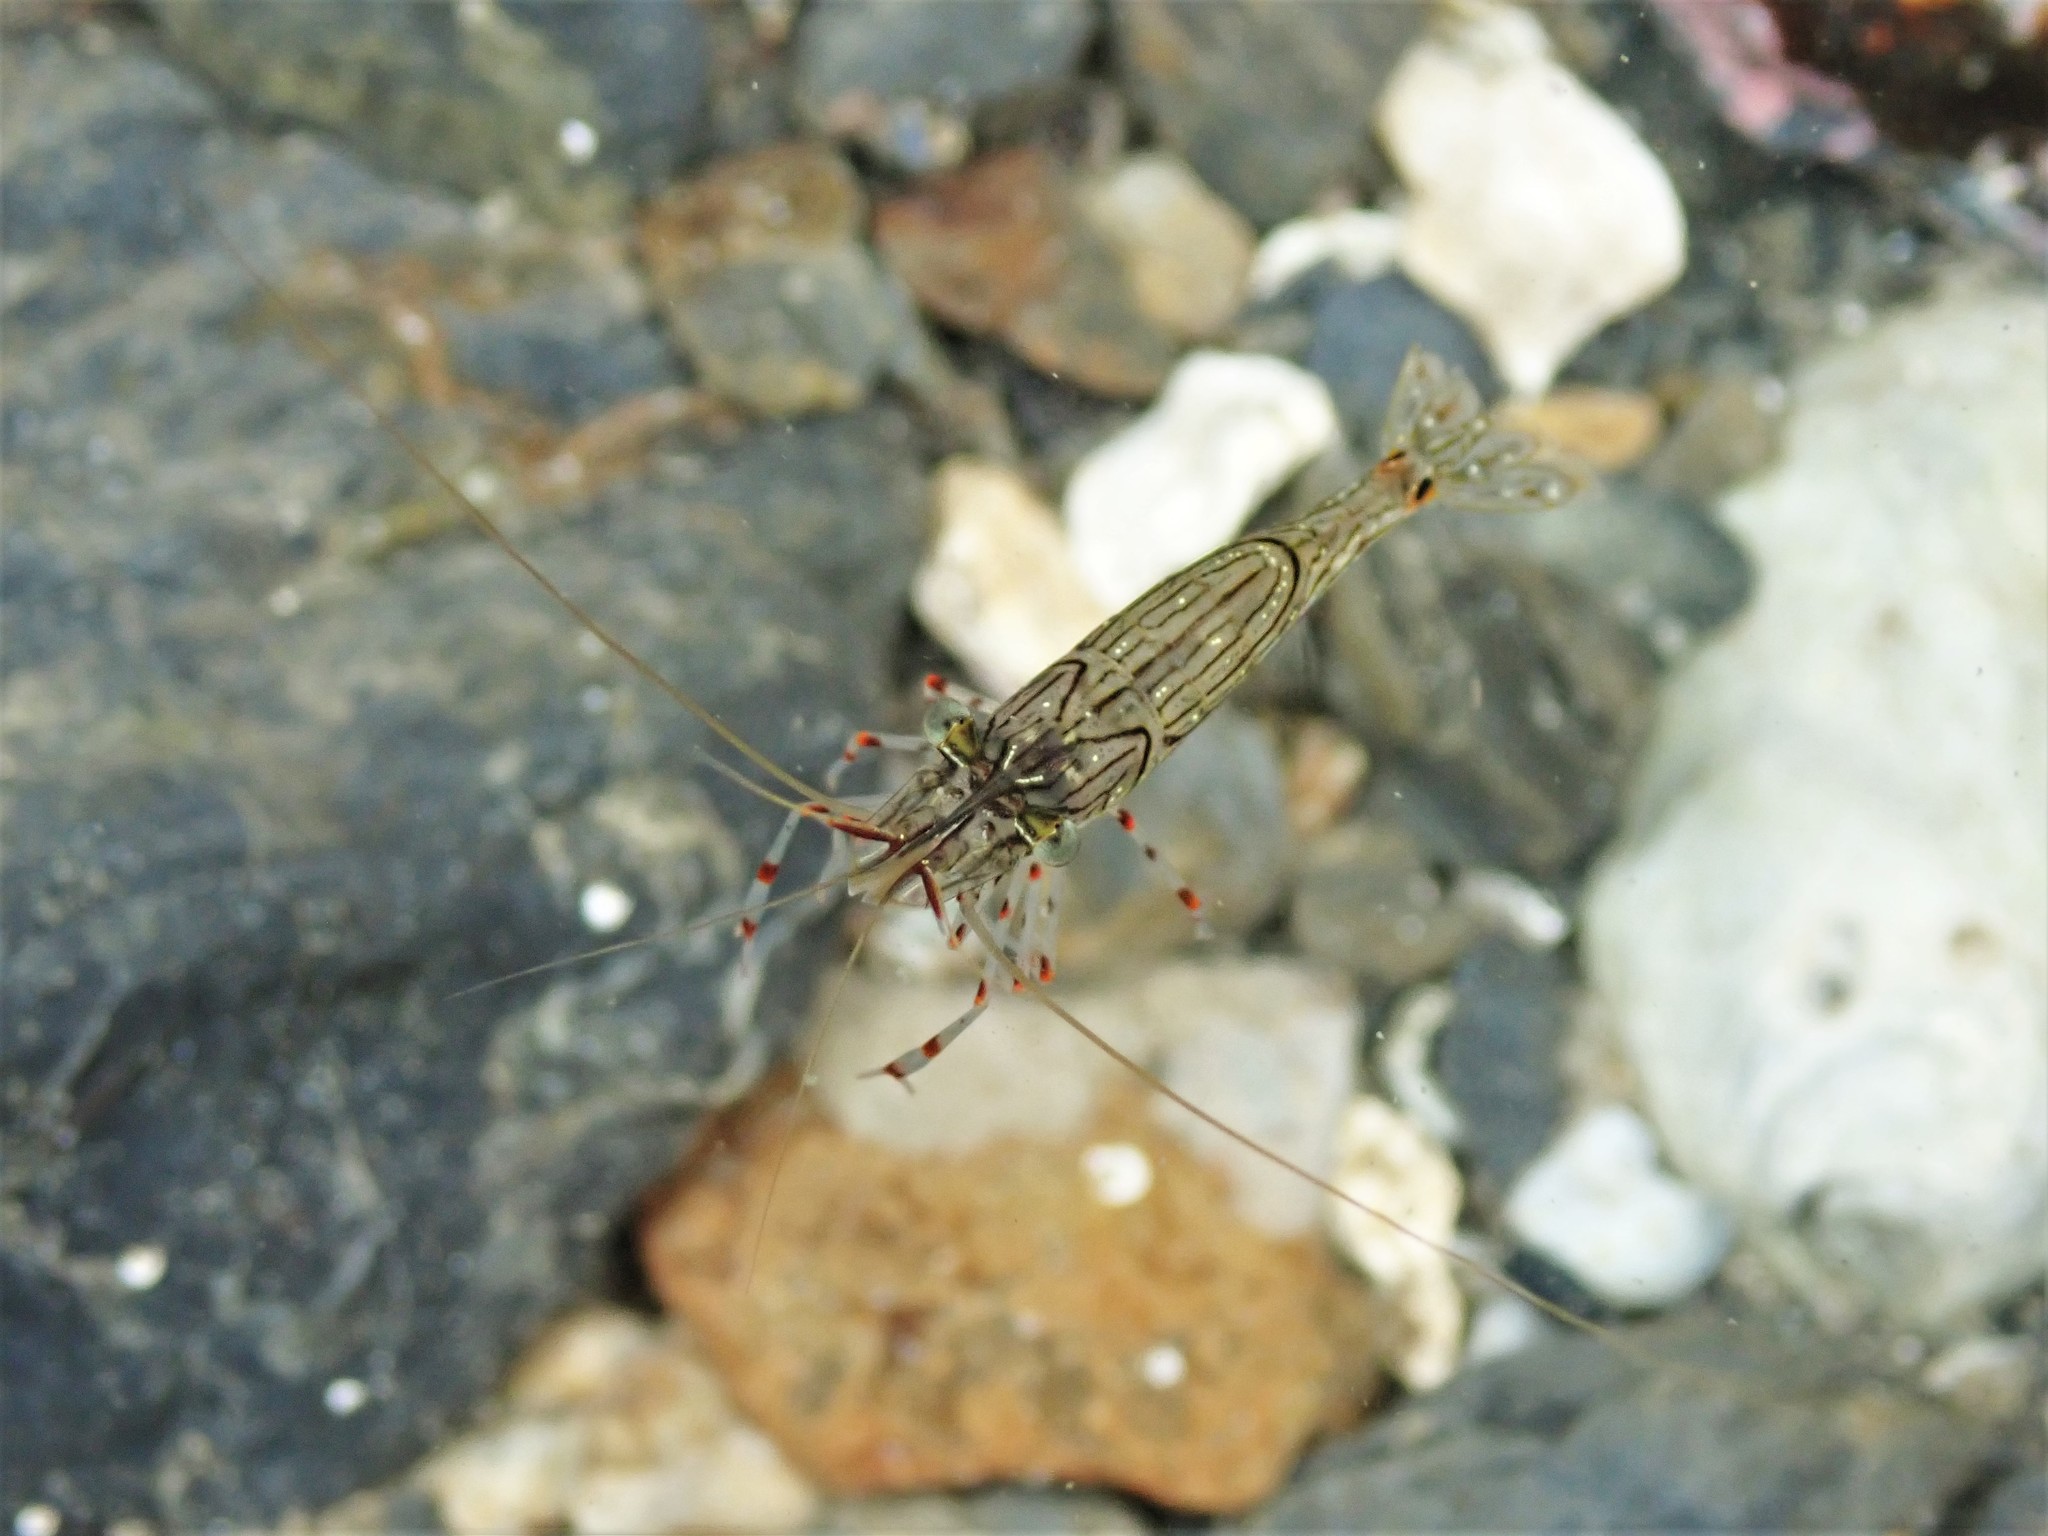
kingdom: Animalia
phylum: Arthropoda
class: Malacostraca
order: Decapoda
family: Palaemonidae
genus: Palaemon
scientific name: Palaemon affinis
